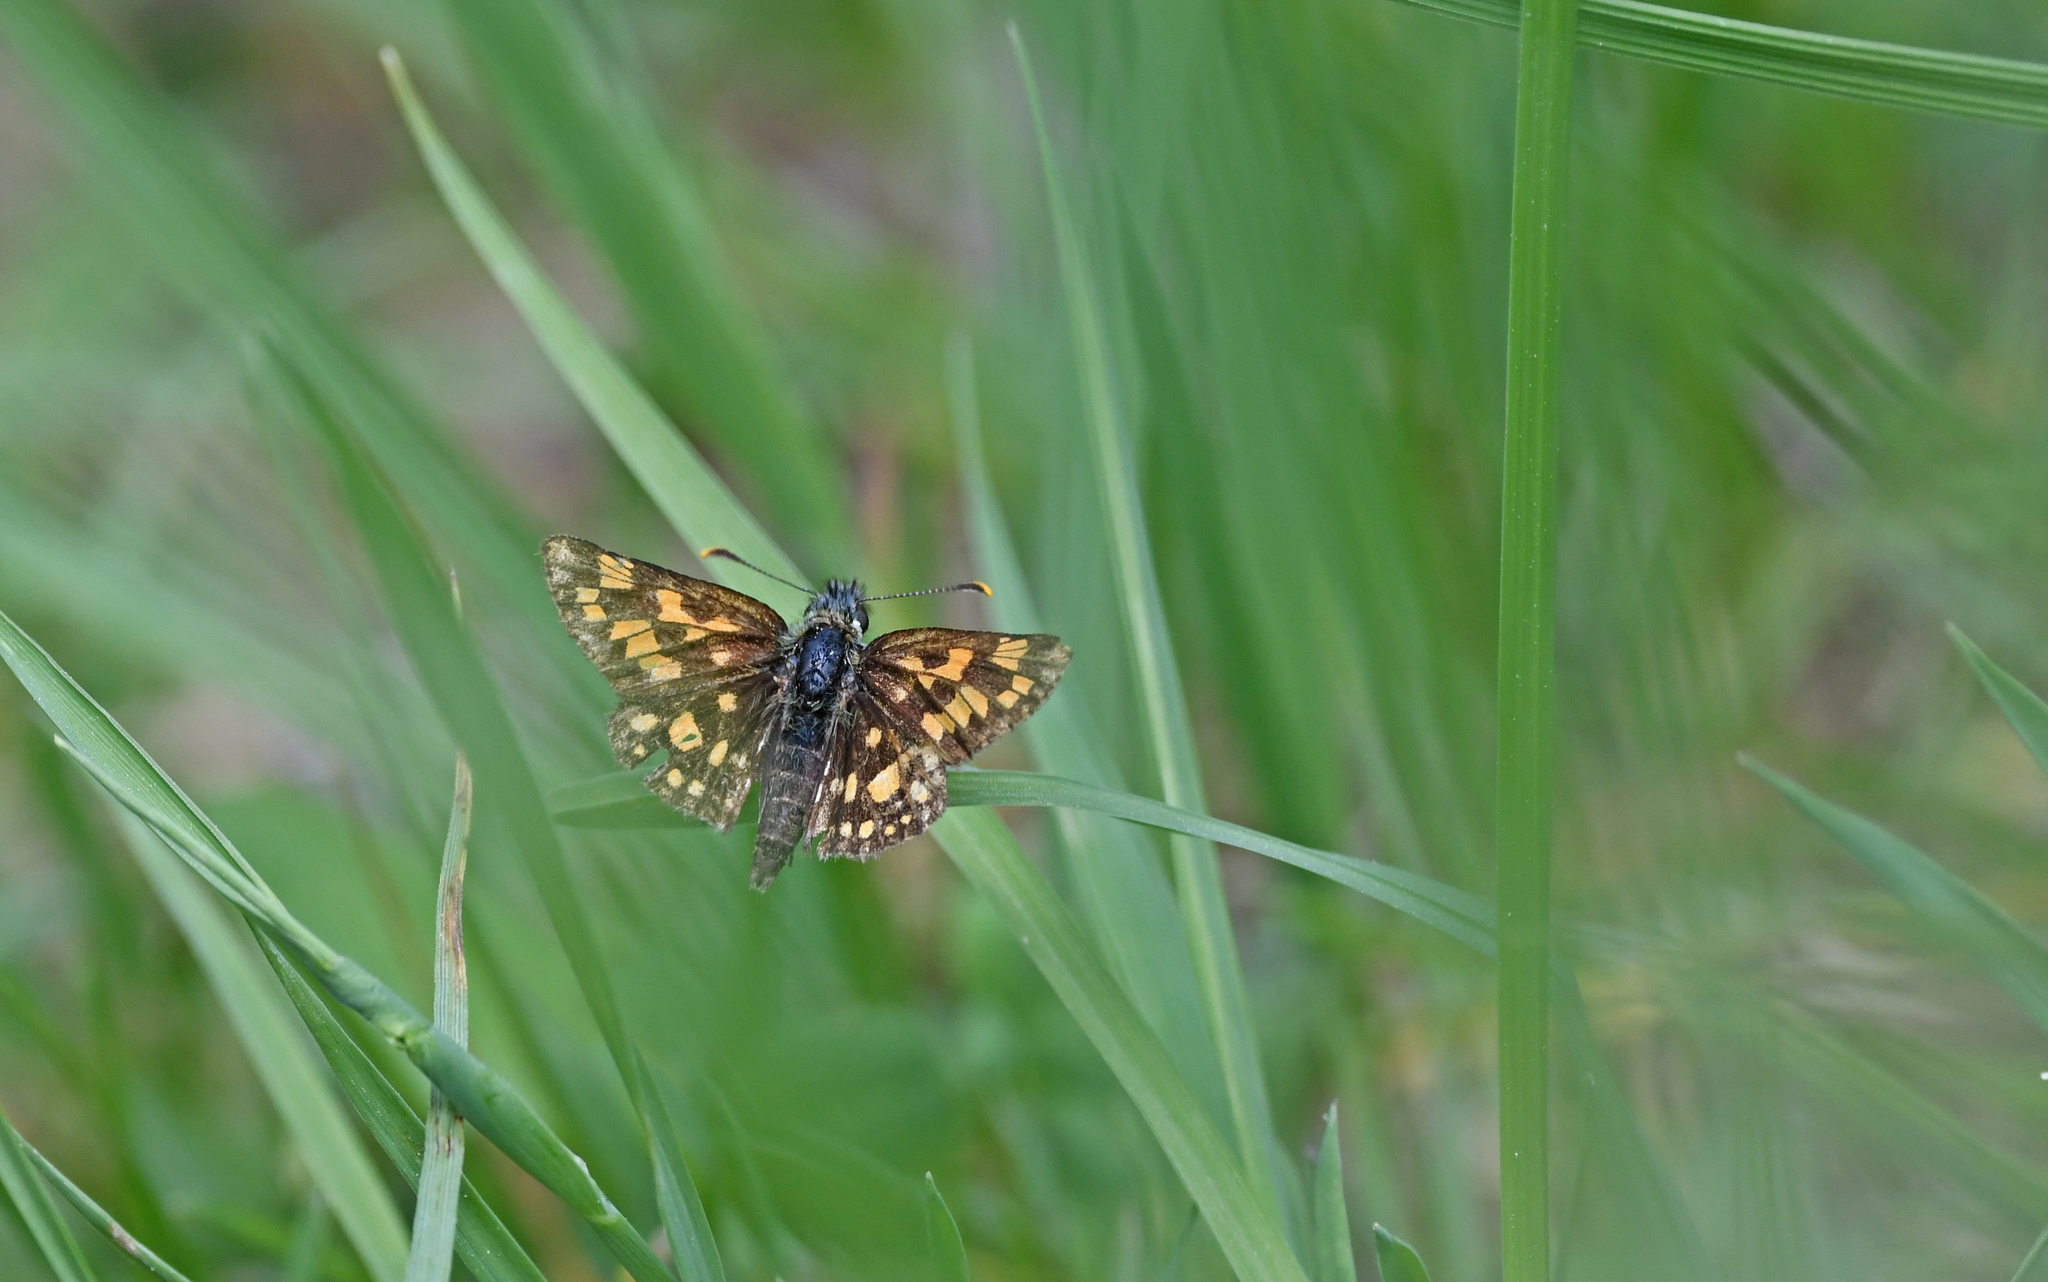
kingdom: Animalia
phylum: Arthropoda
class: Insecta
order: Lepidoptera
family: Hesperiidae
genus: Carterocephalus
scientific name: Carterocephalus palaemon
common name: Chequered skipper
